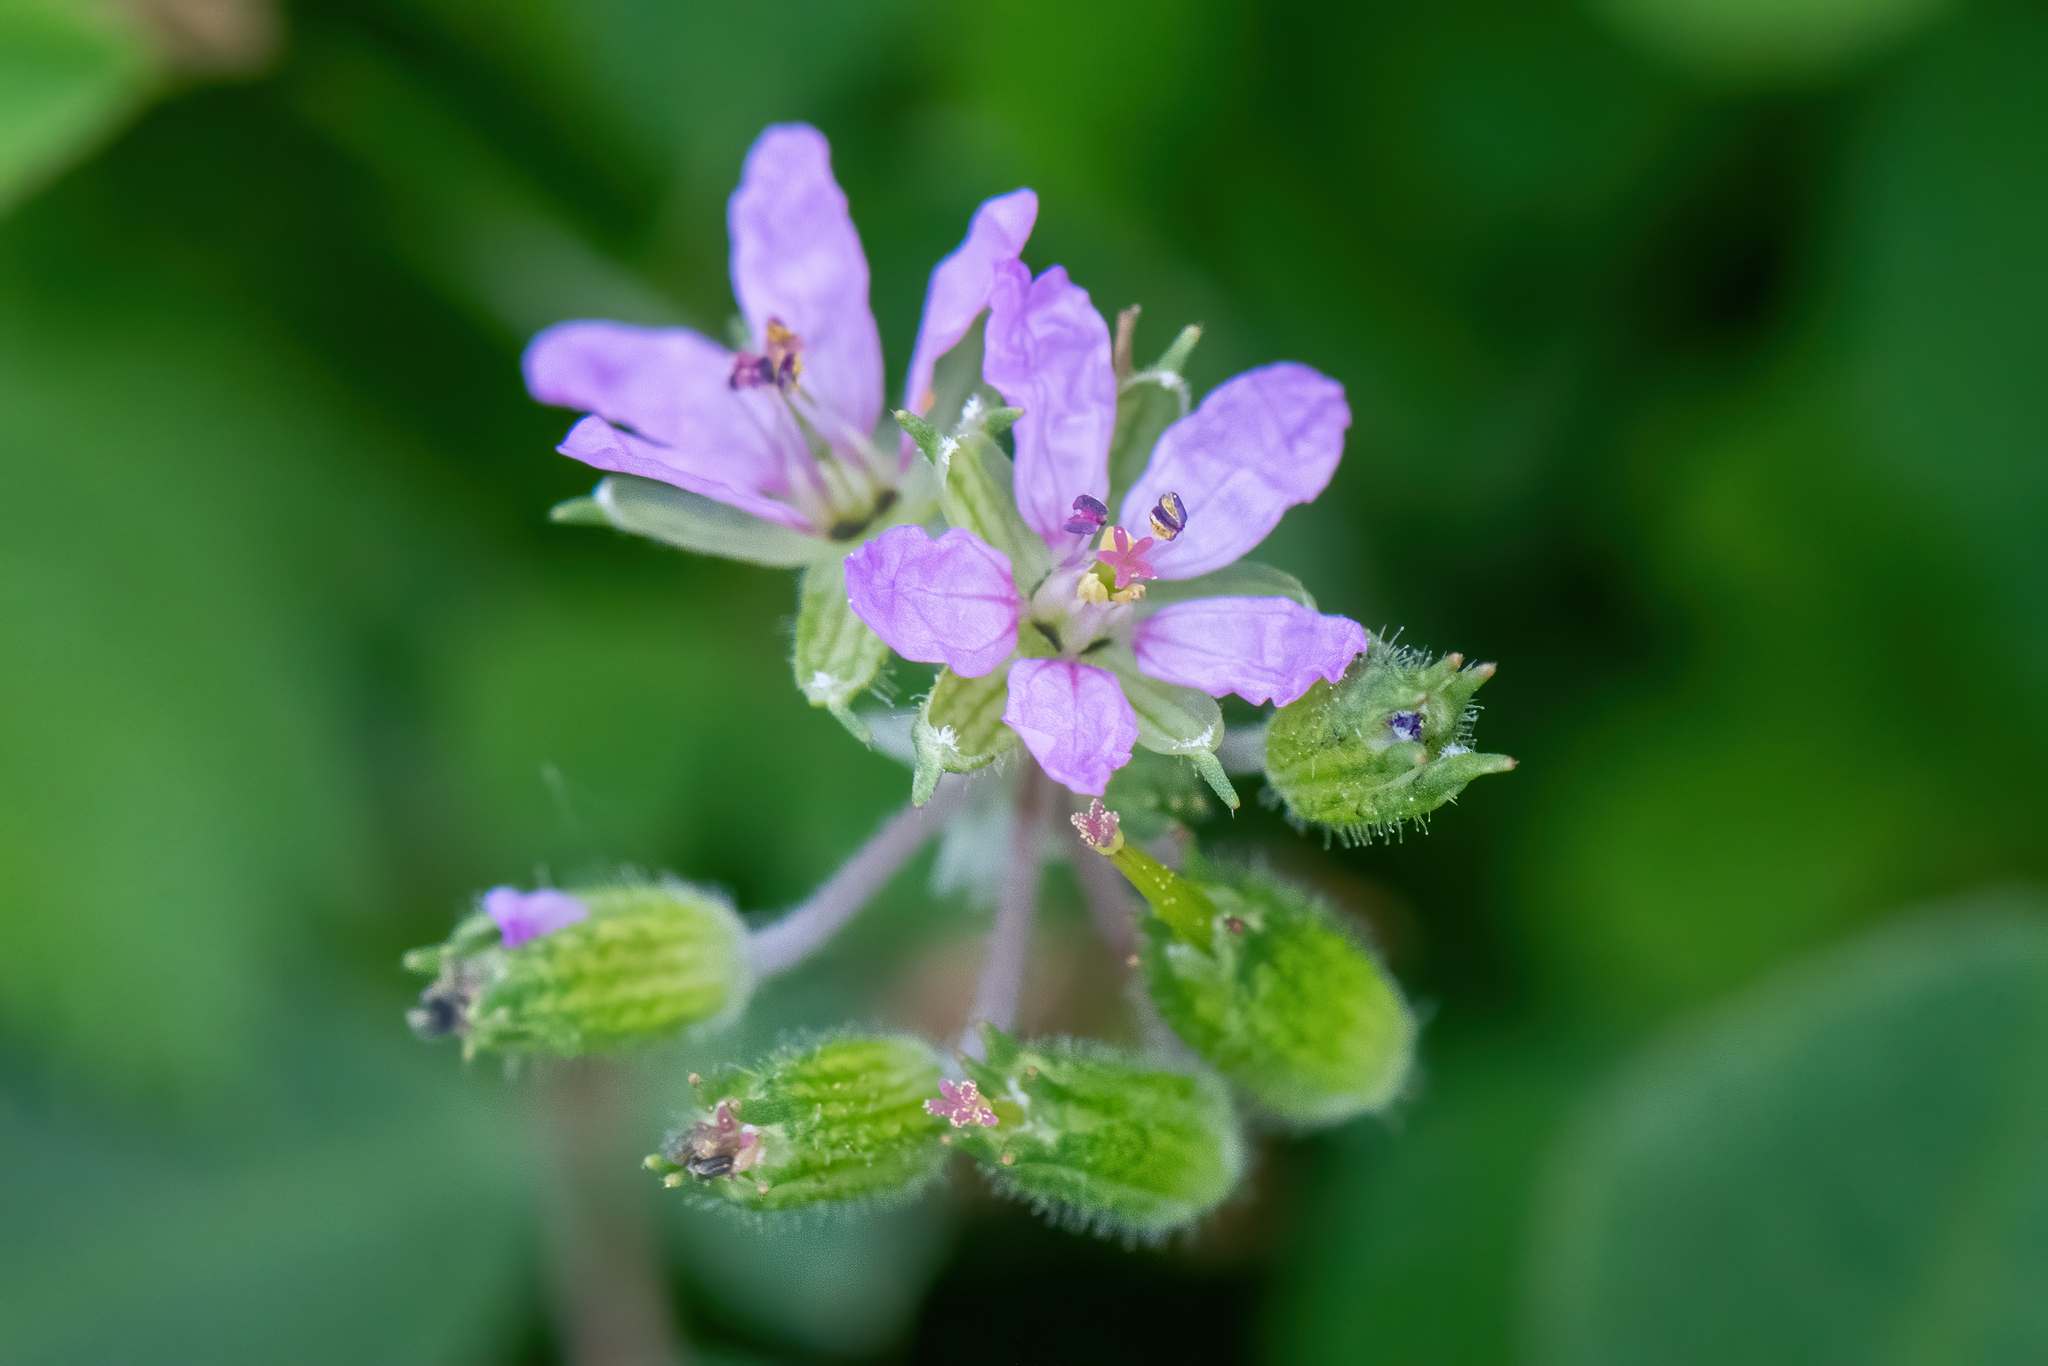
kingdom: Plantae
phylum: Tracheophyta
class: Magnoliopsida
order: Geraniales
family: Geraniaceae
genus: Erodium
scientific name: Erodium moschatum
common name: Musk stork's-bill
